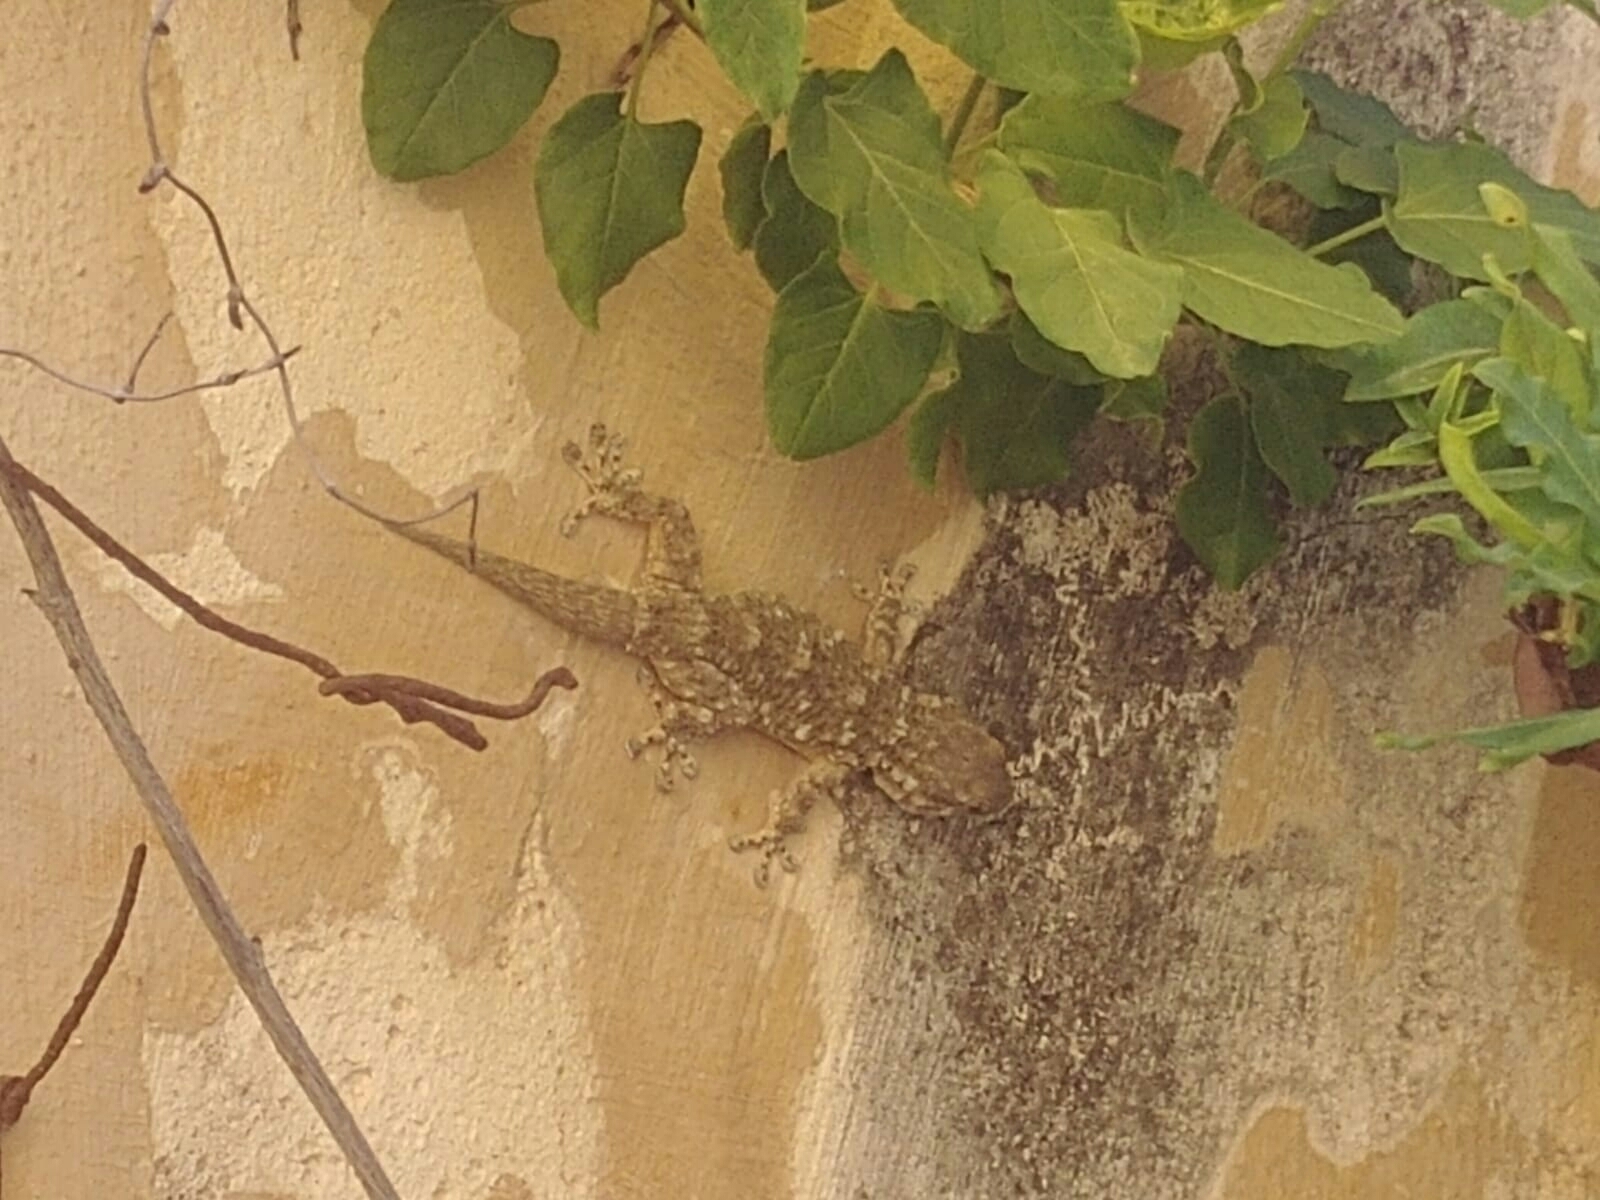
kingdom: Animalia
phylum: Chordata
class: Squamata
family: Phyllodactylidae
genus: Tarentola
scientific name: Tarentola mauritanica
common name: Moorish gecko
